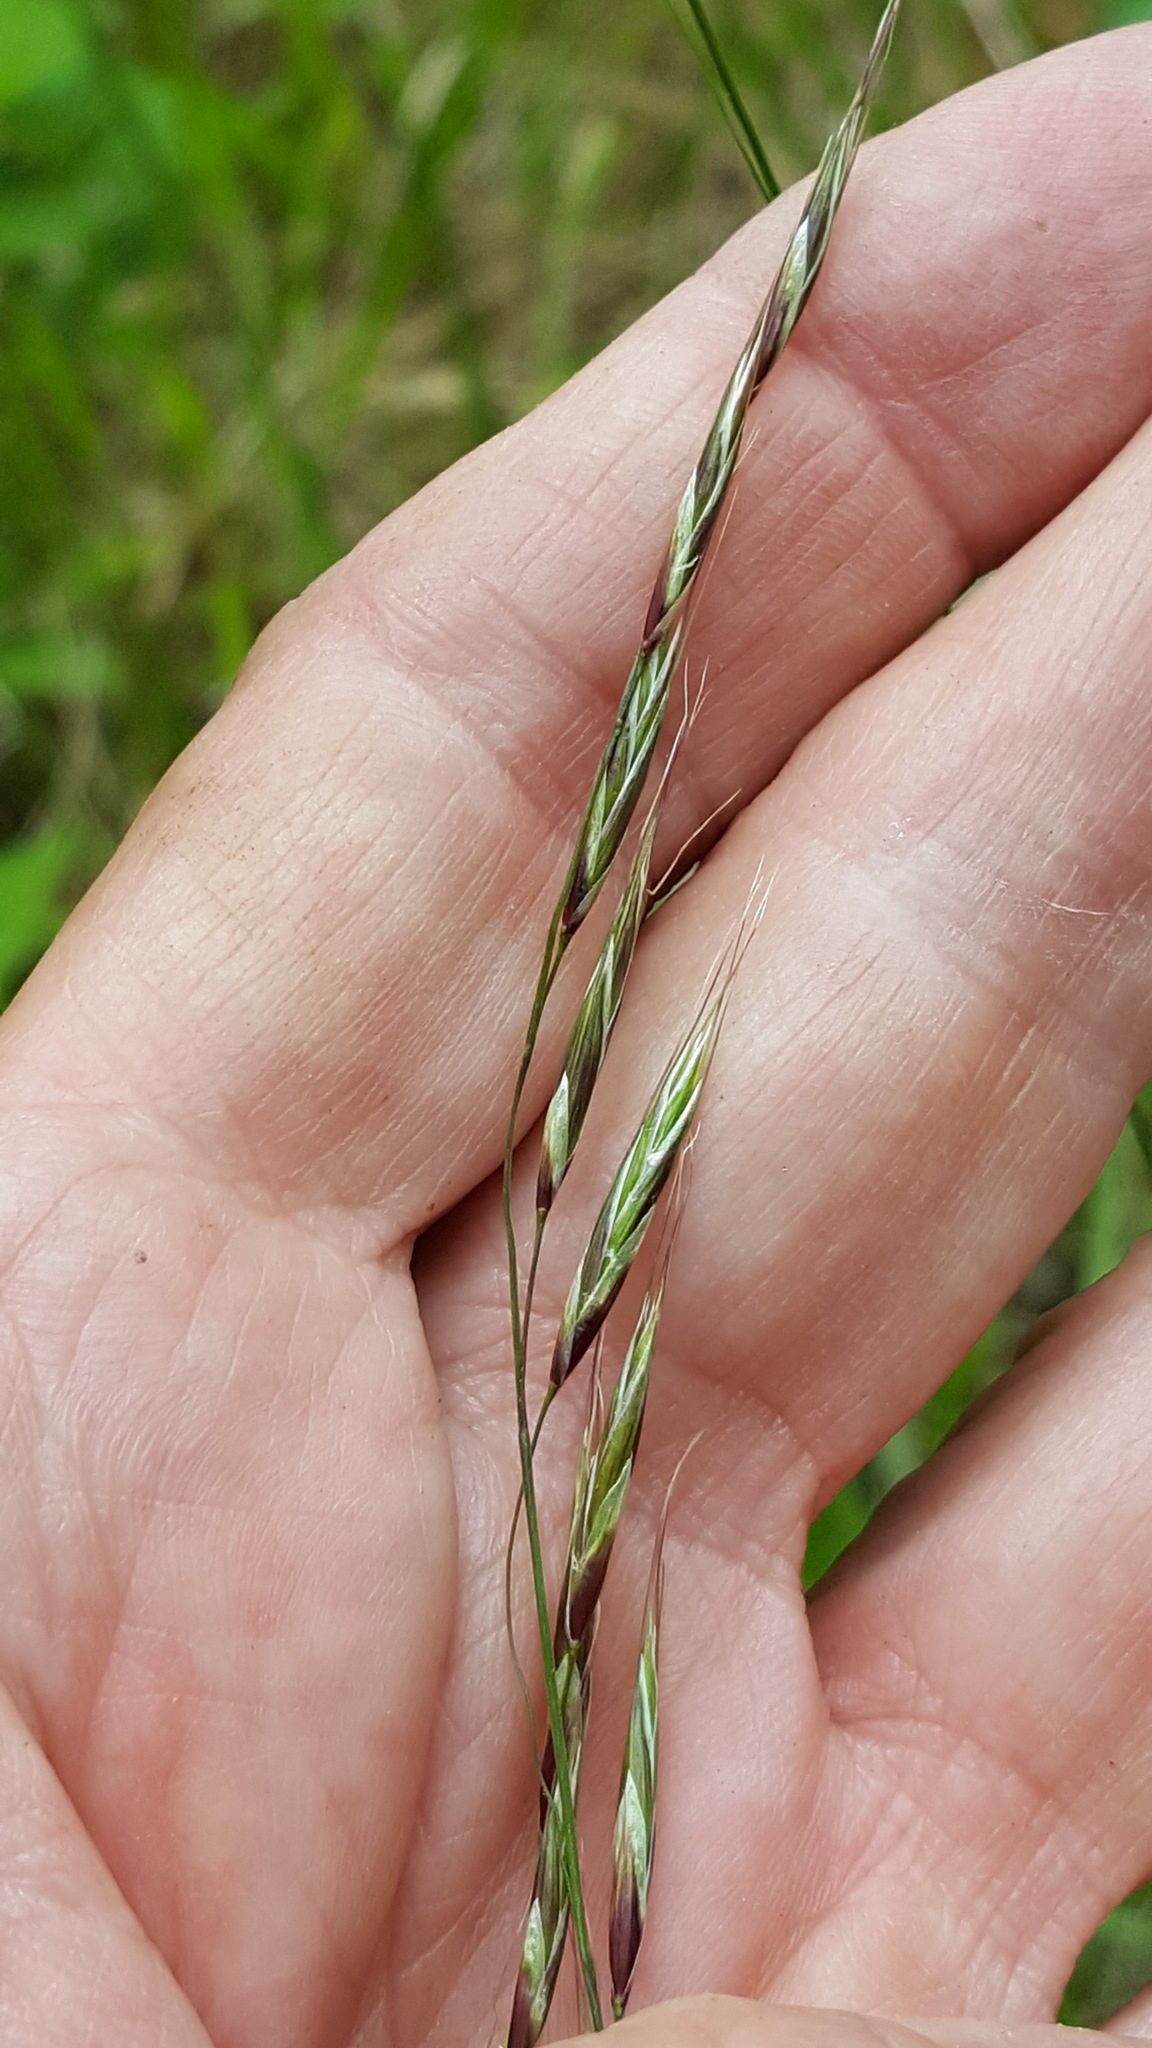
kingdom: Plantae
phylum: Tracheophyta
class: Liliopsida
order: Poales
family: Poaceae
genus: Schizachne
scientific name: Schizachne purpurascens
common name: False melic
